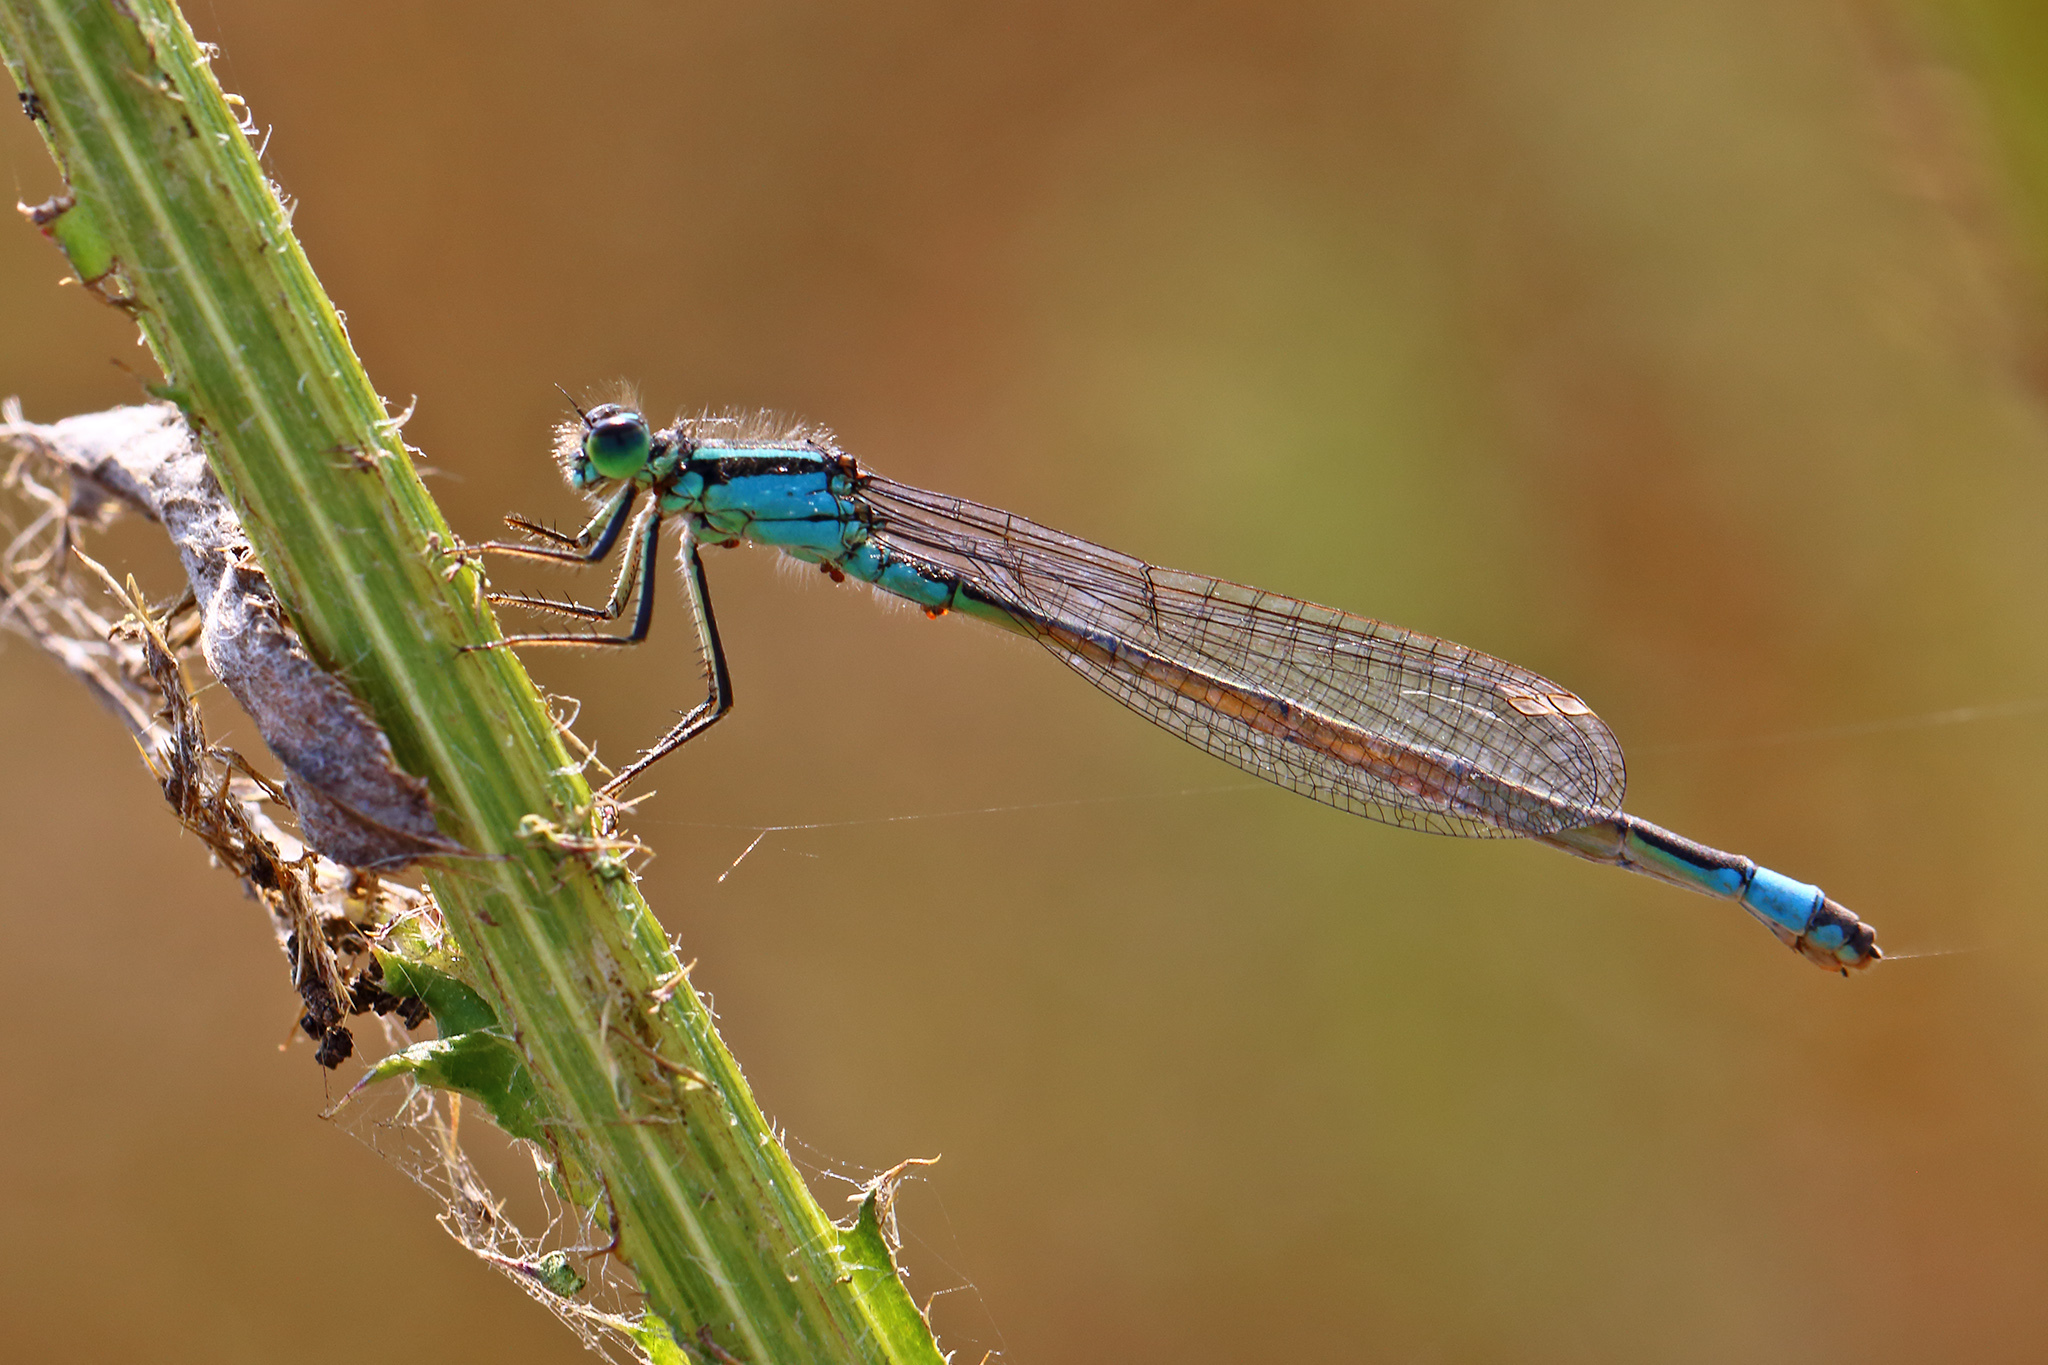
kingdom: Animalia
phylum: Arthropoda
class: Insecta
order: Odonata
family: Coenagrionidae
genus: Ischnura
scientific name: Ischnura elegans
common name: Blue-tailed damselfly
